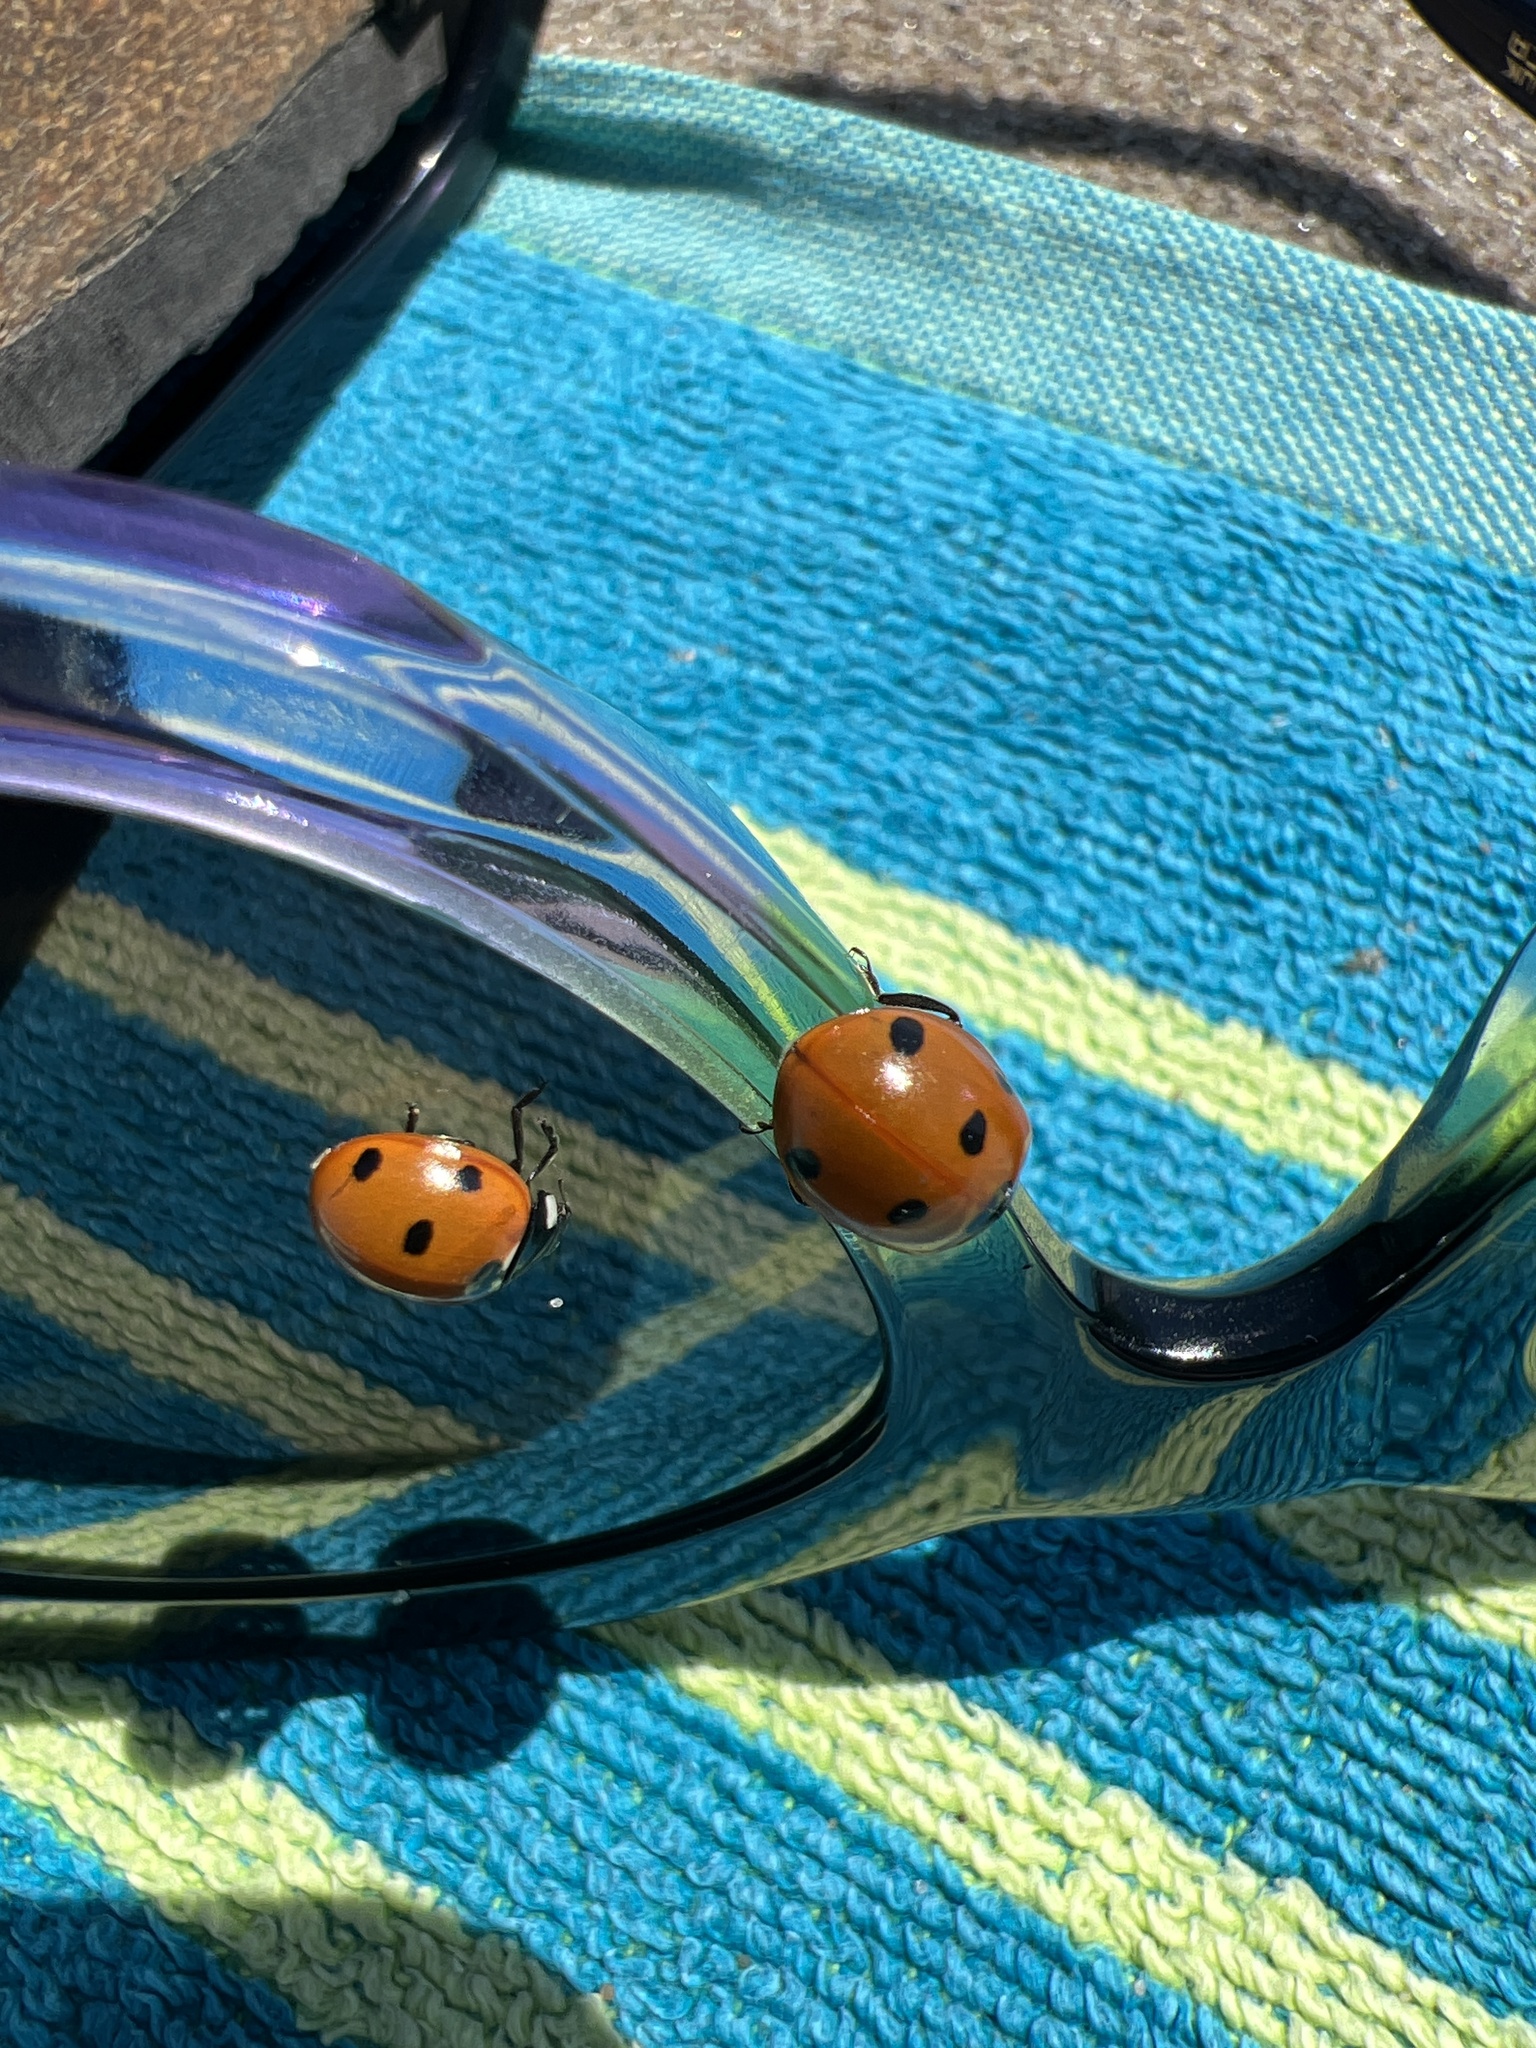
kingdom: Animalia
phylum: Arthropoda
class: Insecta
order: Coleoptera
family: Coccinellidae
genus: Coccinella
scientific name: Coccinella septempunctata
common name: Sevenspotted lady beetle
